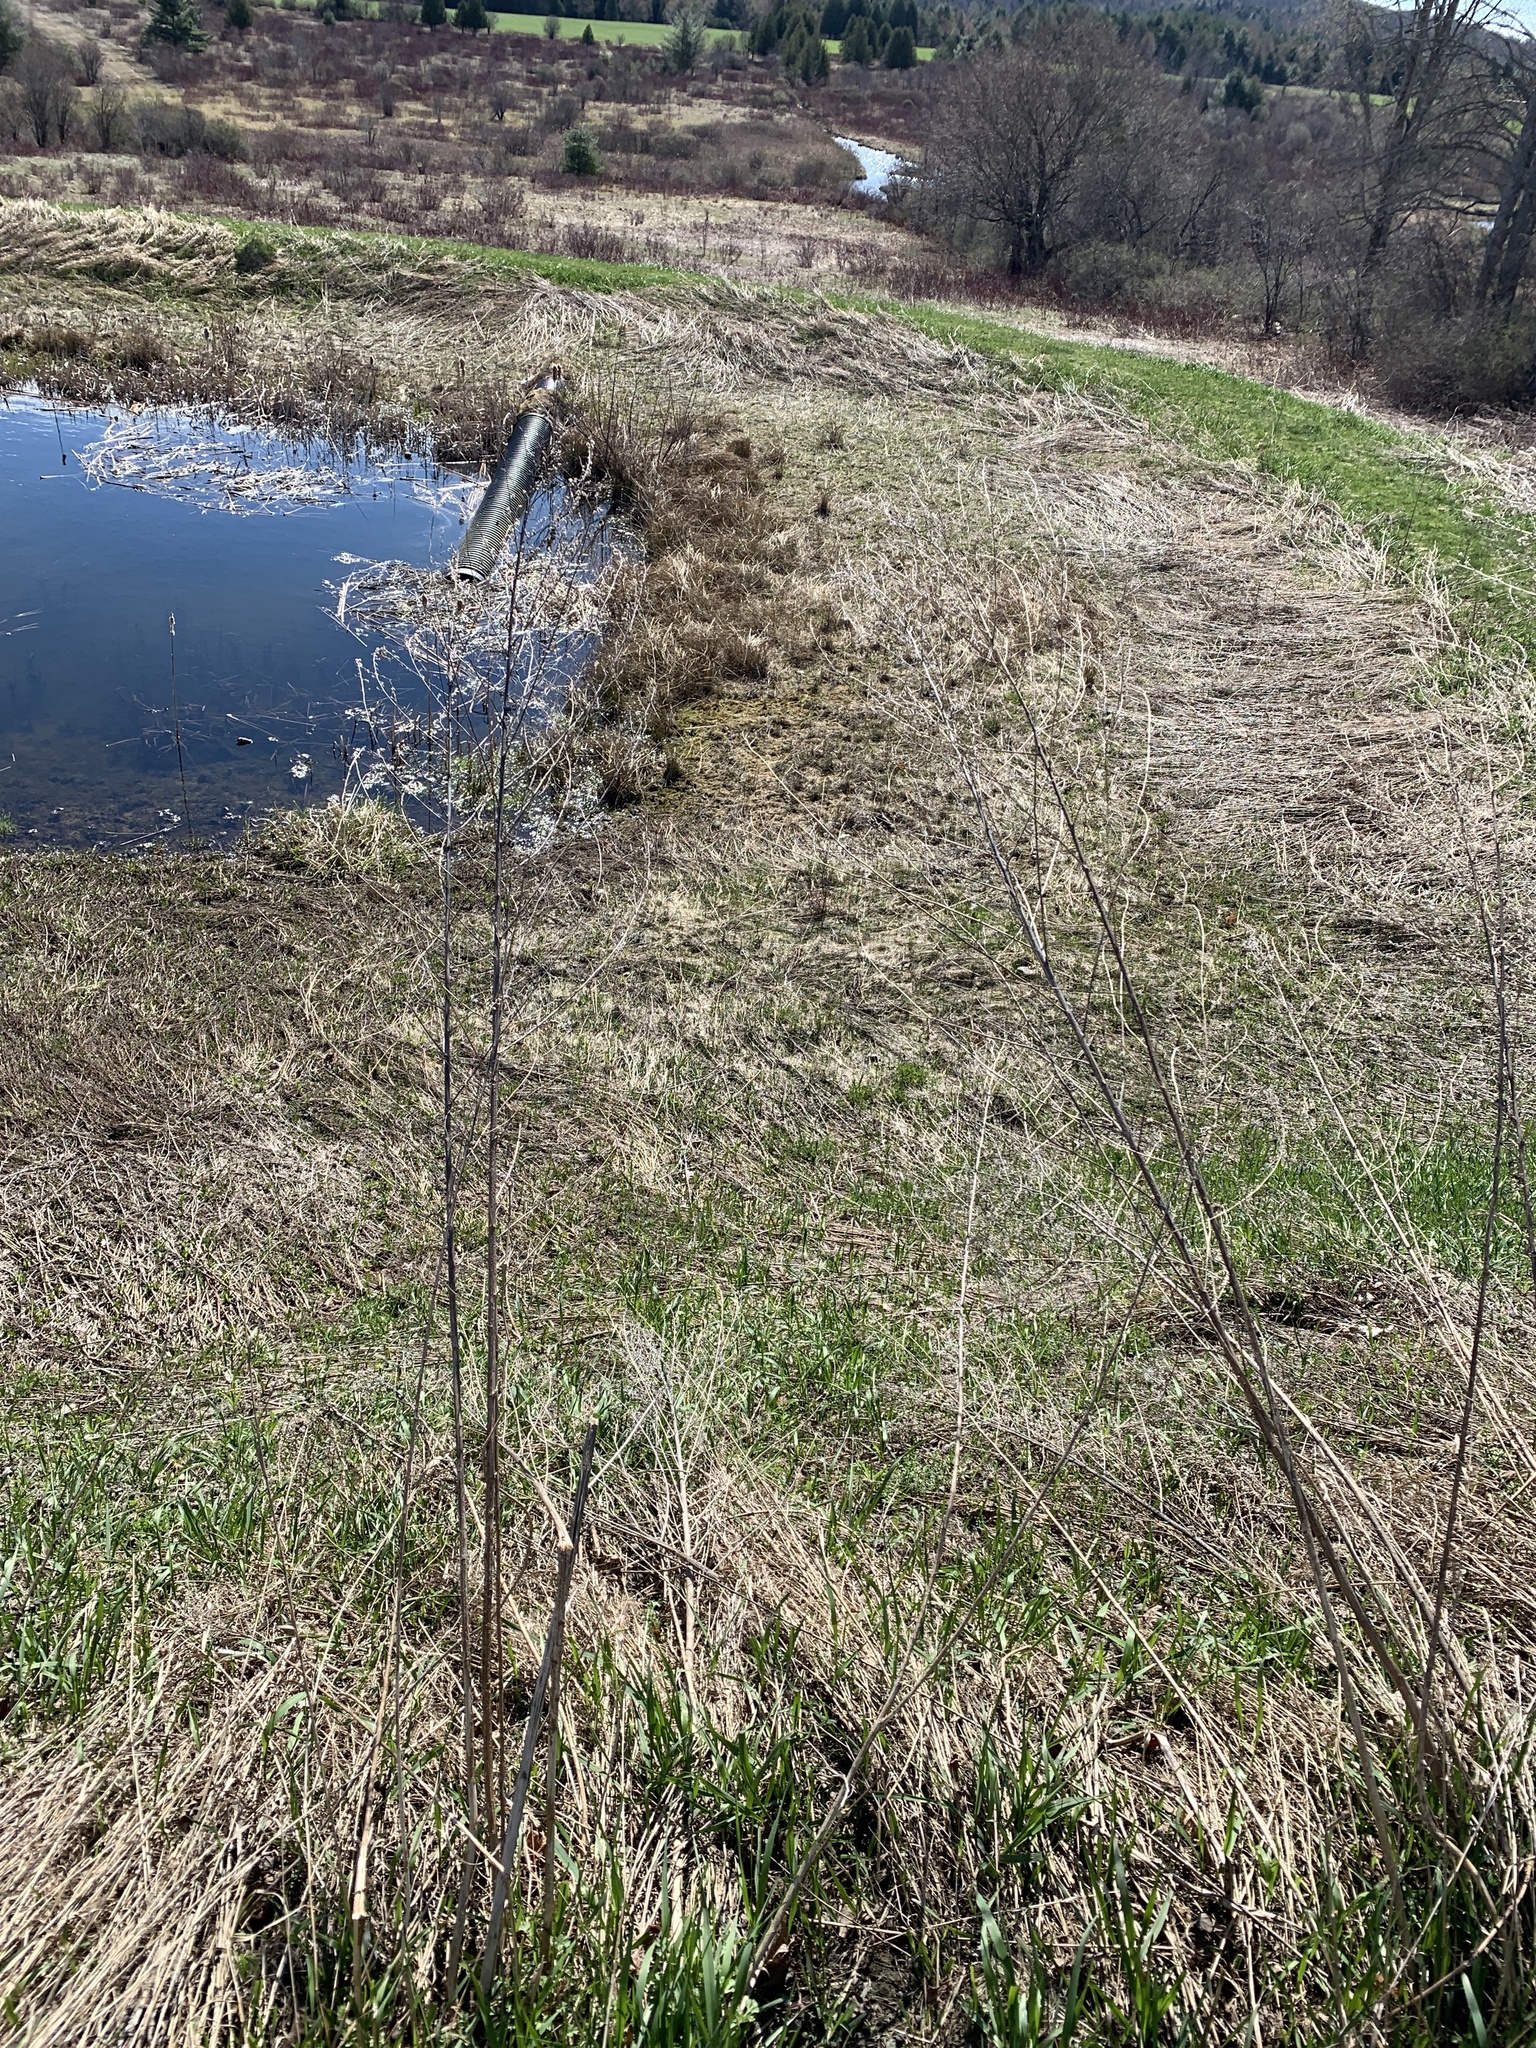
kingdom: Plantae
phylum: Tracheophyta
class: Magnoliopsida
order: Asterales
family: Asteraceae
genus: Artemisia
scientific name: Artemisia vulgaris
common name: Mugwort
